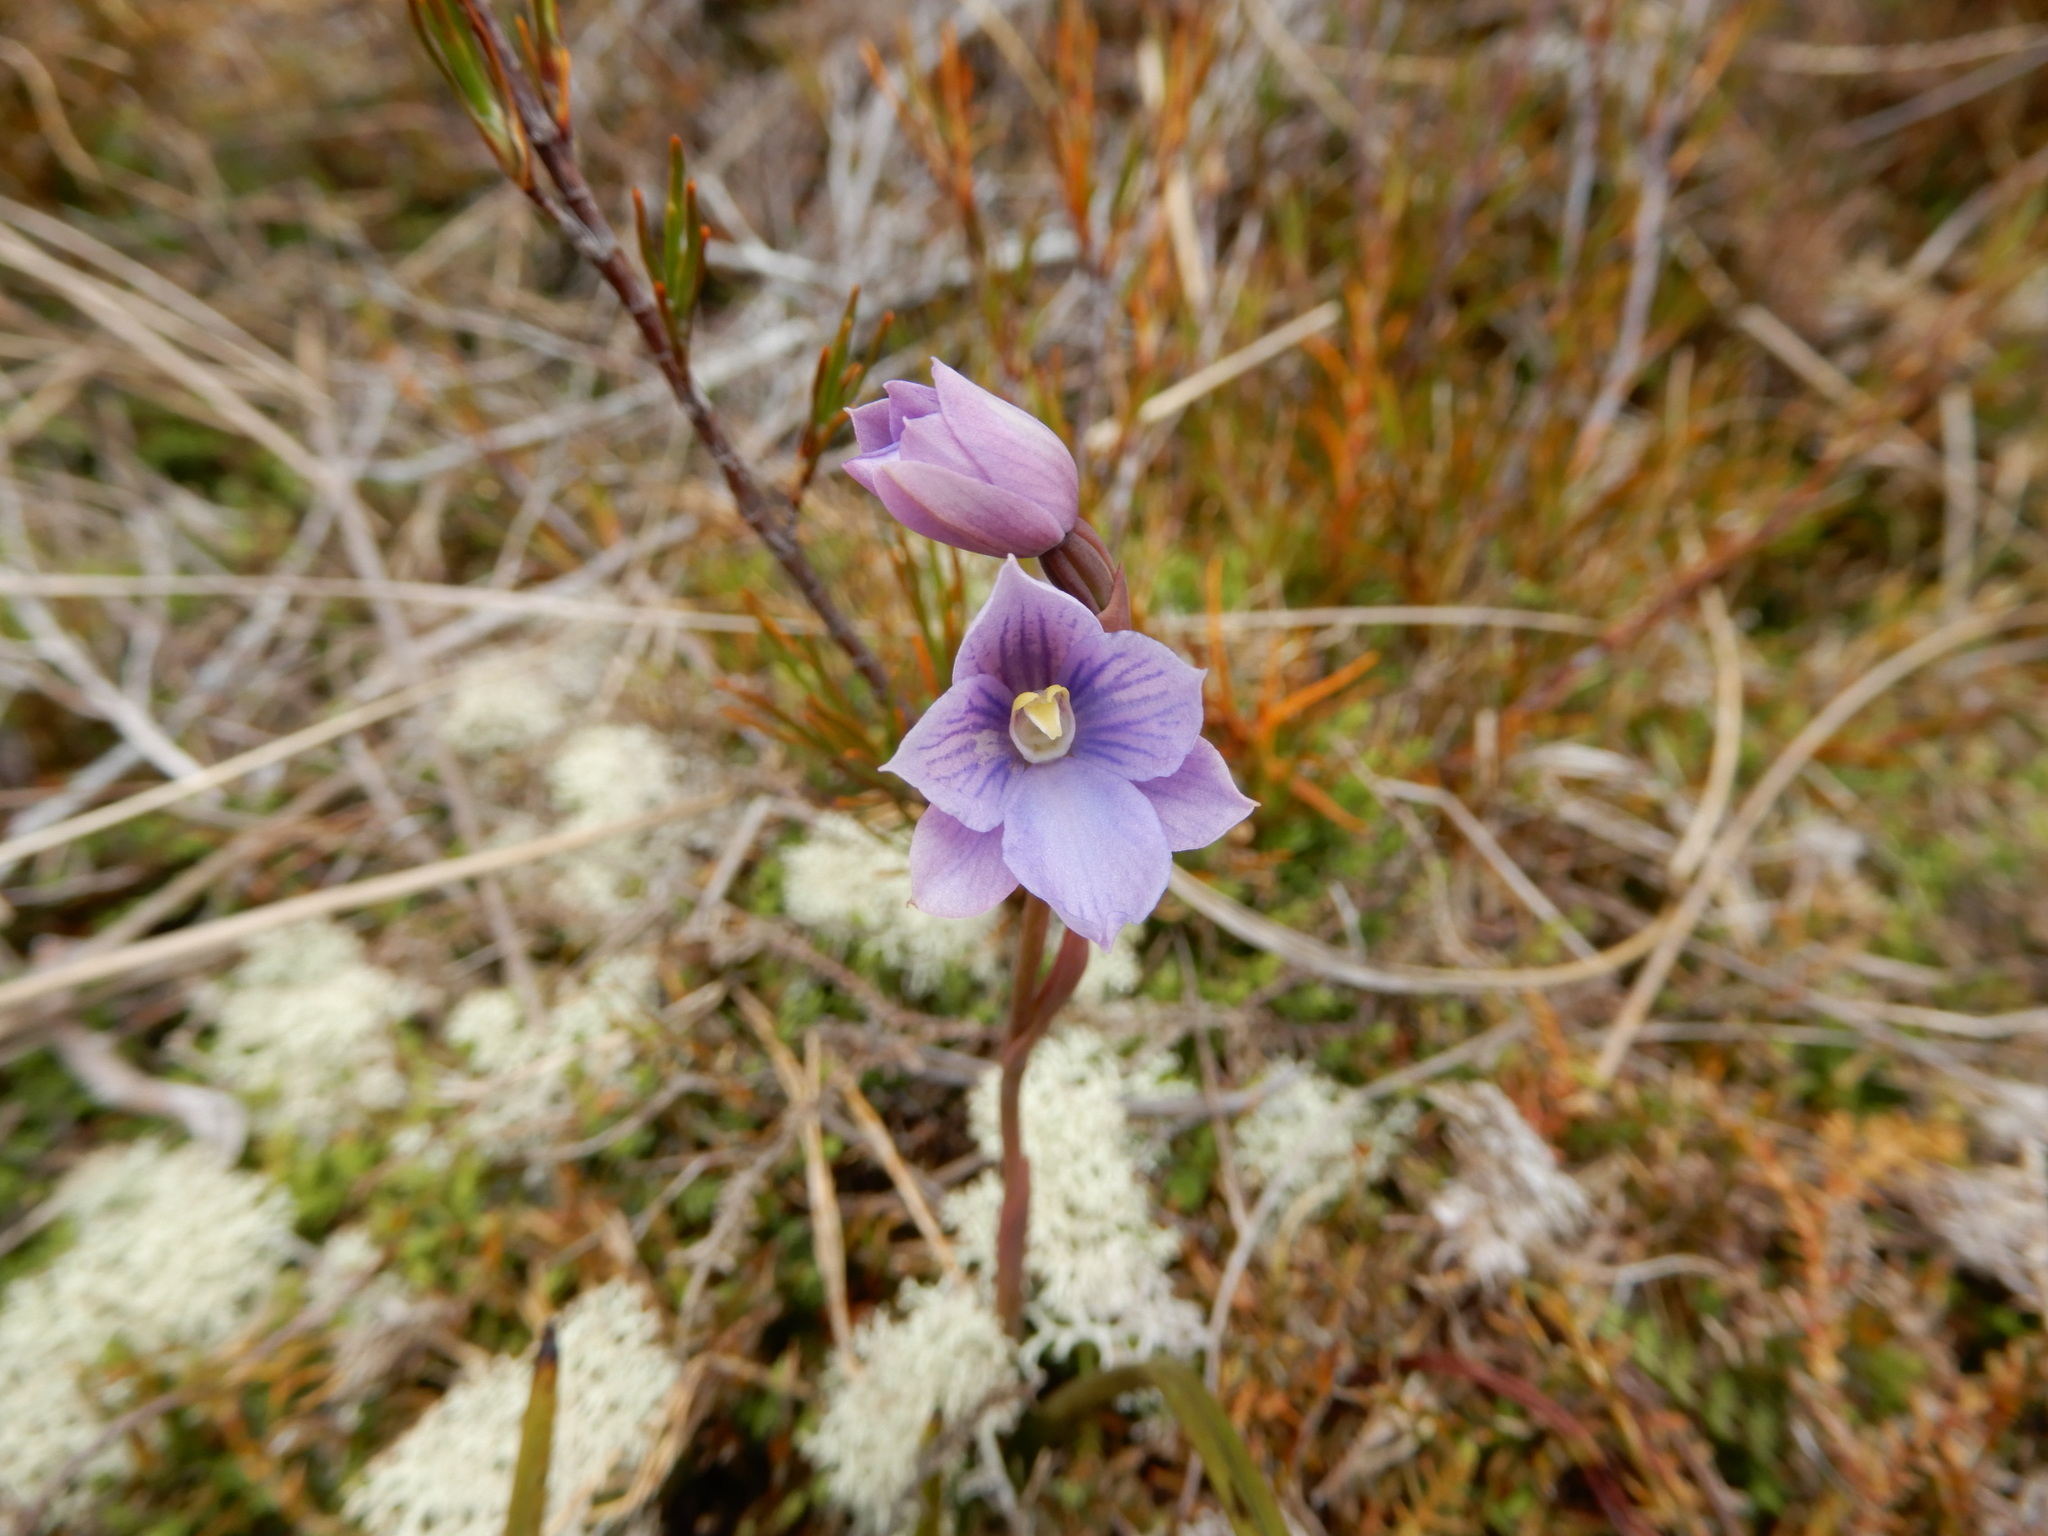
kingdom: Plantae
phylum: Tracheophyta
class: Liliopsida
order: Asparagales
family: Orchidaceae
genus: Thelymitra
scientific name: Thelymitra cyanea
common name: Blue sun-orchid
